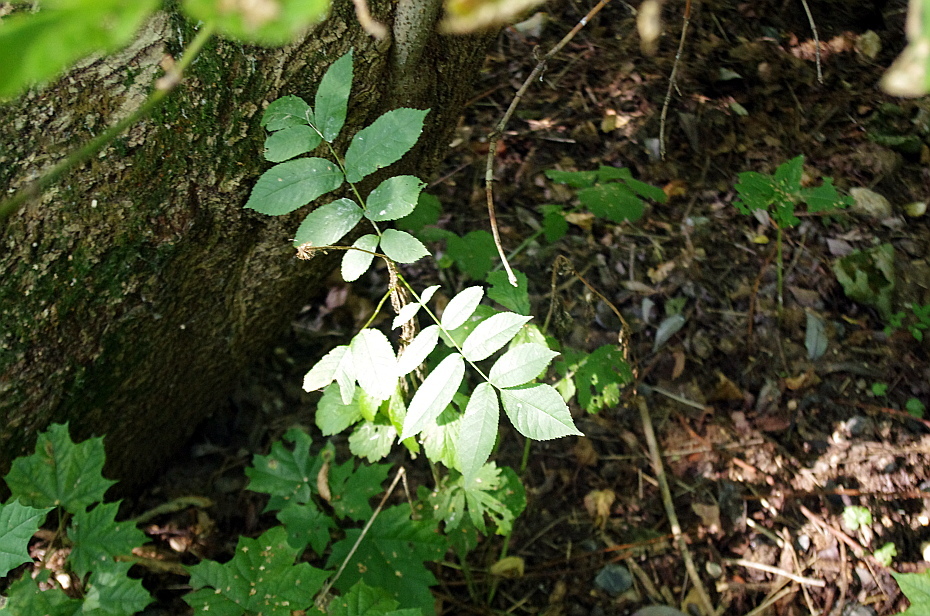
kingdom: Plantae
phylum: Tracheophyta
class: Magnoliopsida
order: Lamiales
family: Oleaceae
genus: Fraxinus
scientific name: Fraxinus pennsylvanica
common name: Green ash
